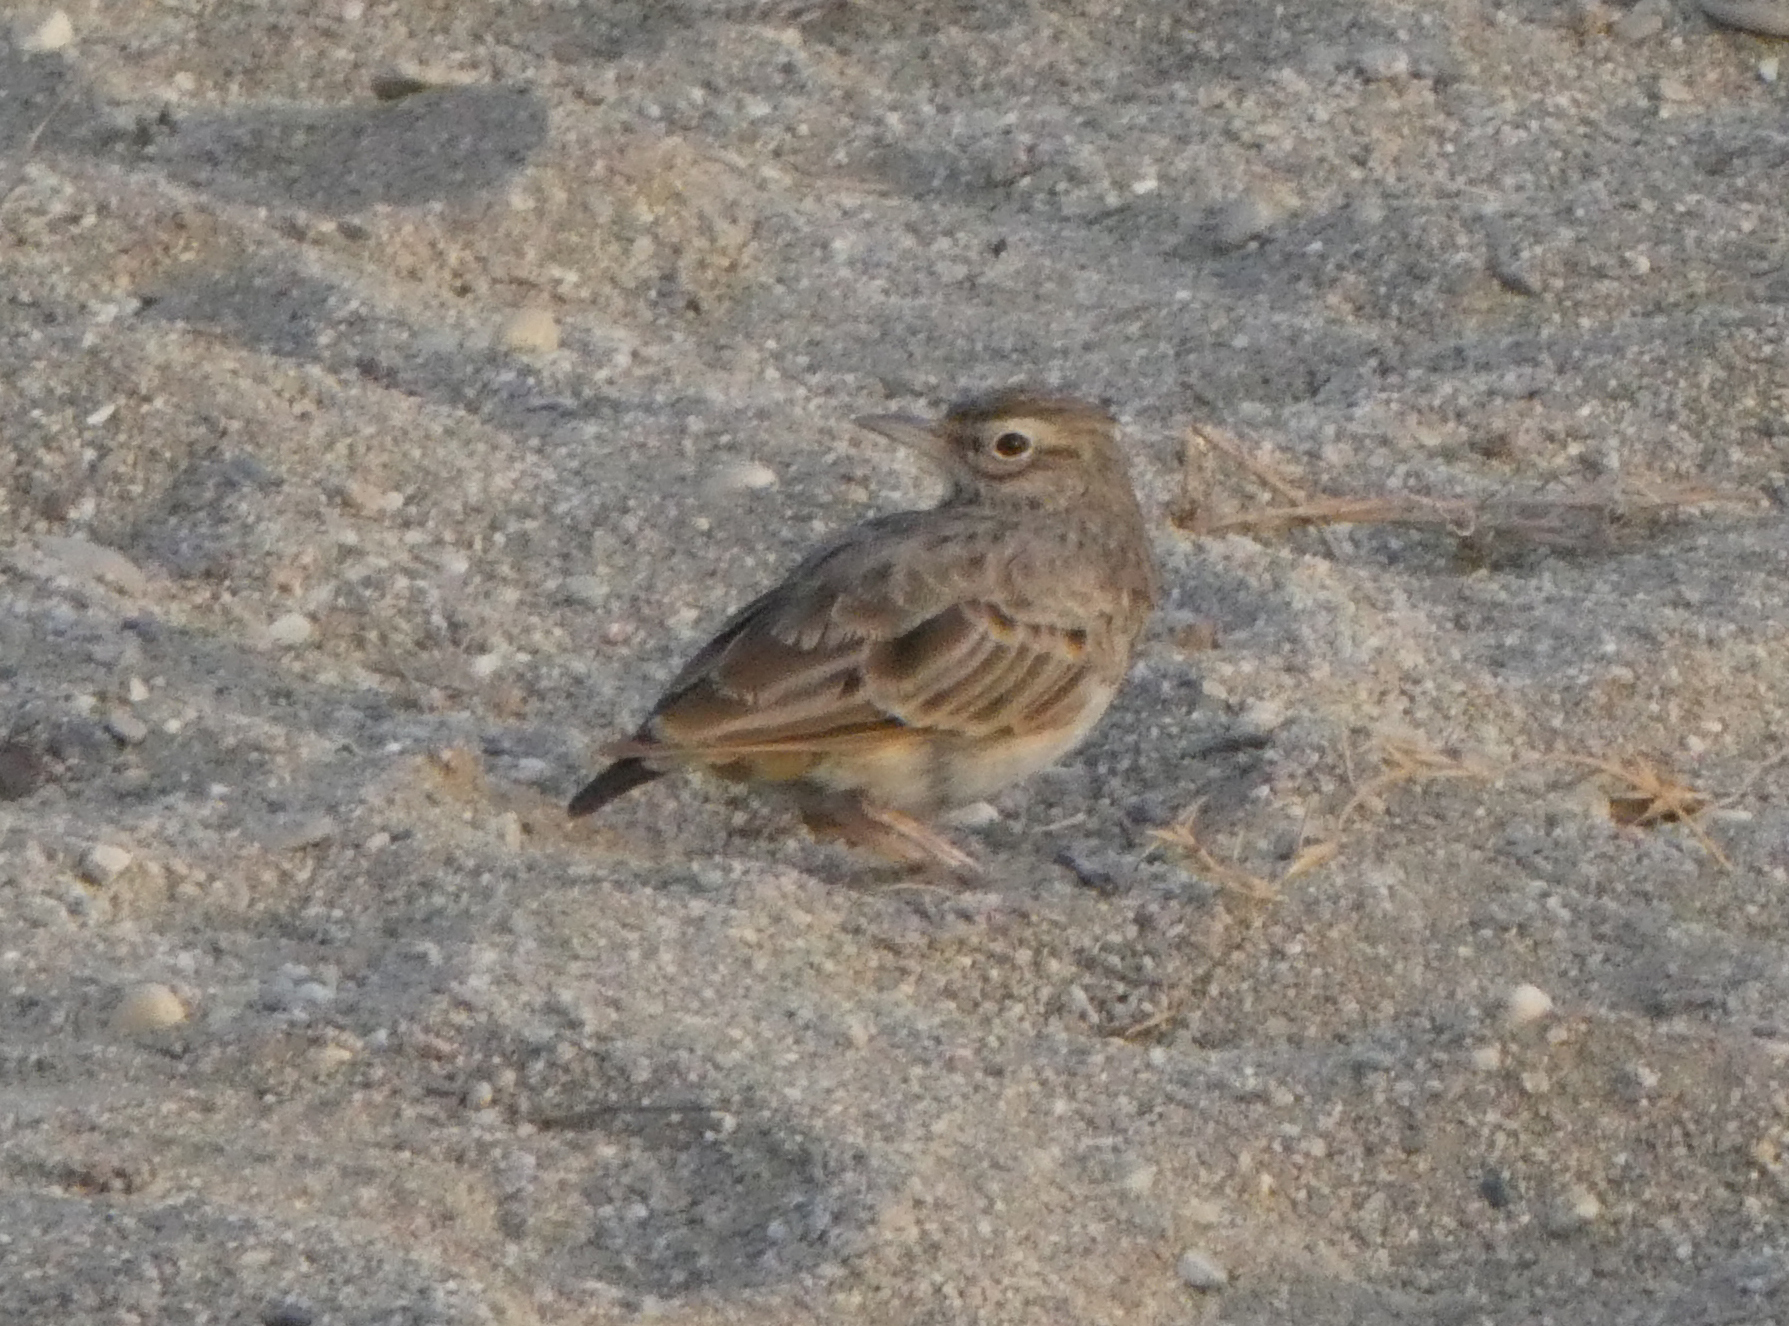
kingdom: Animalia
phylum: Chordata
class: Aves
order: Passeriformes
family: Alaudidae
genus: Galerida
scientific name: Galerida cristata
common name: Crested lark
